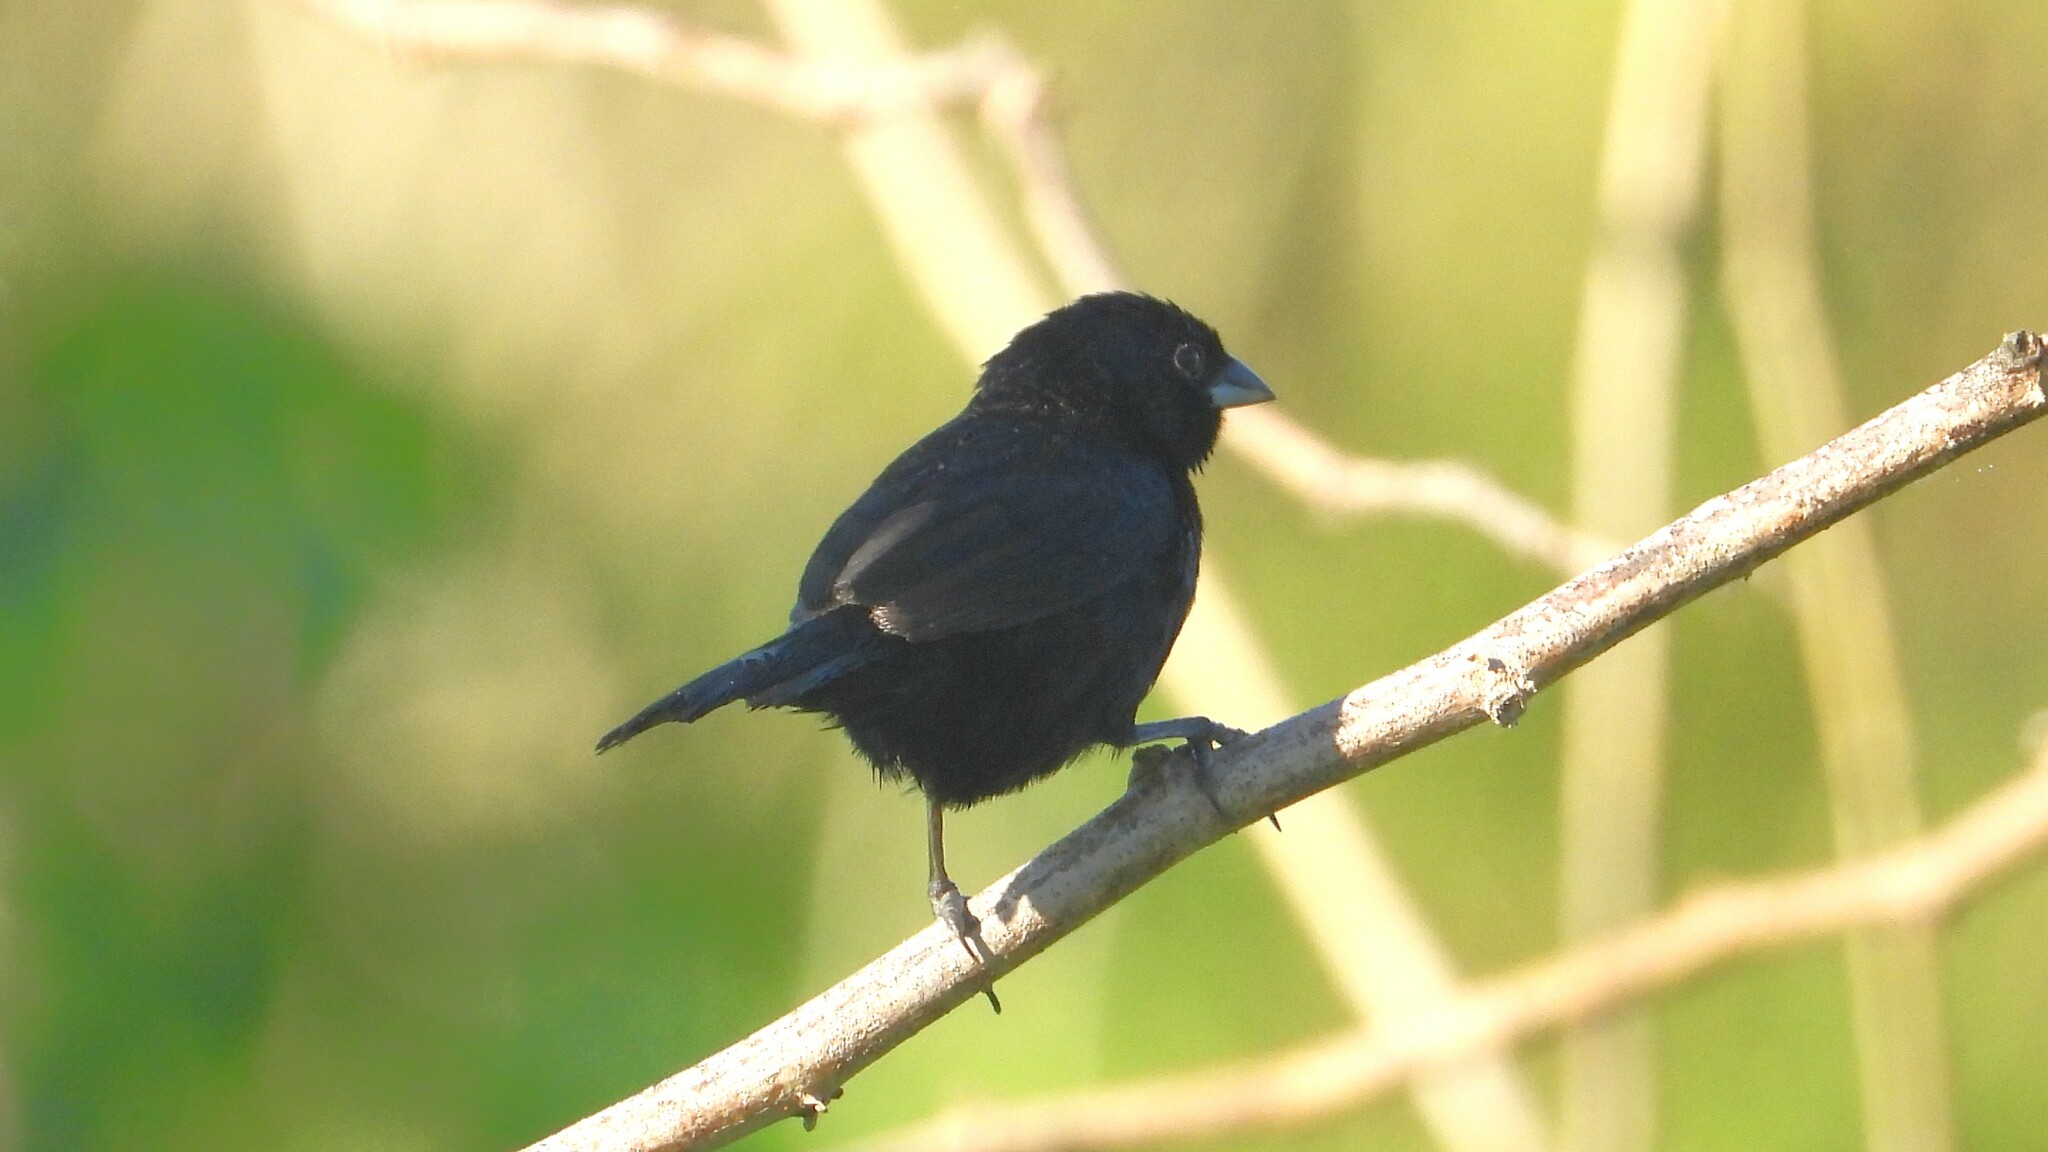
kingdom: Animalia
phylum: Chordata
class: Aves
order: Passeriformes
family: Thraupidae
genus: Volatinia
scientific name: Volatinia jacarina
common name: Blue-black grassquit
